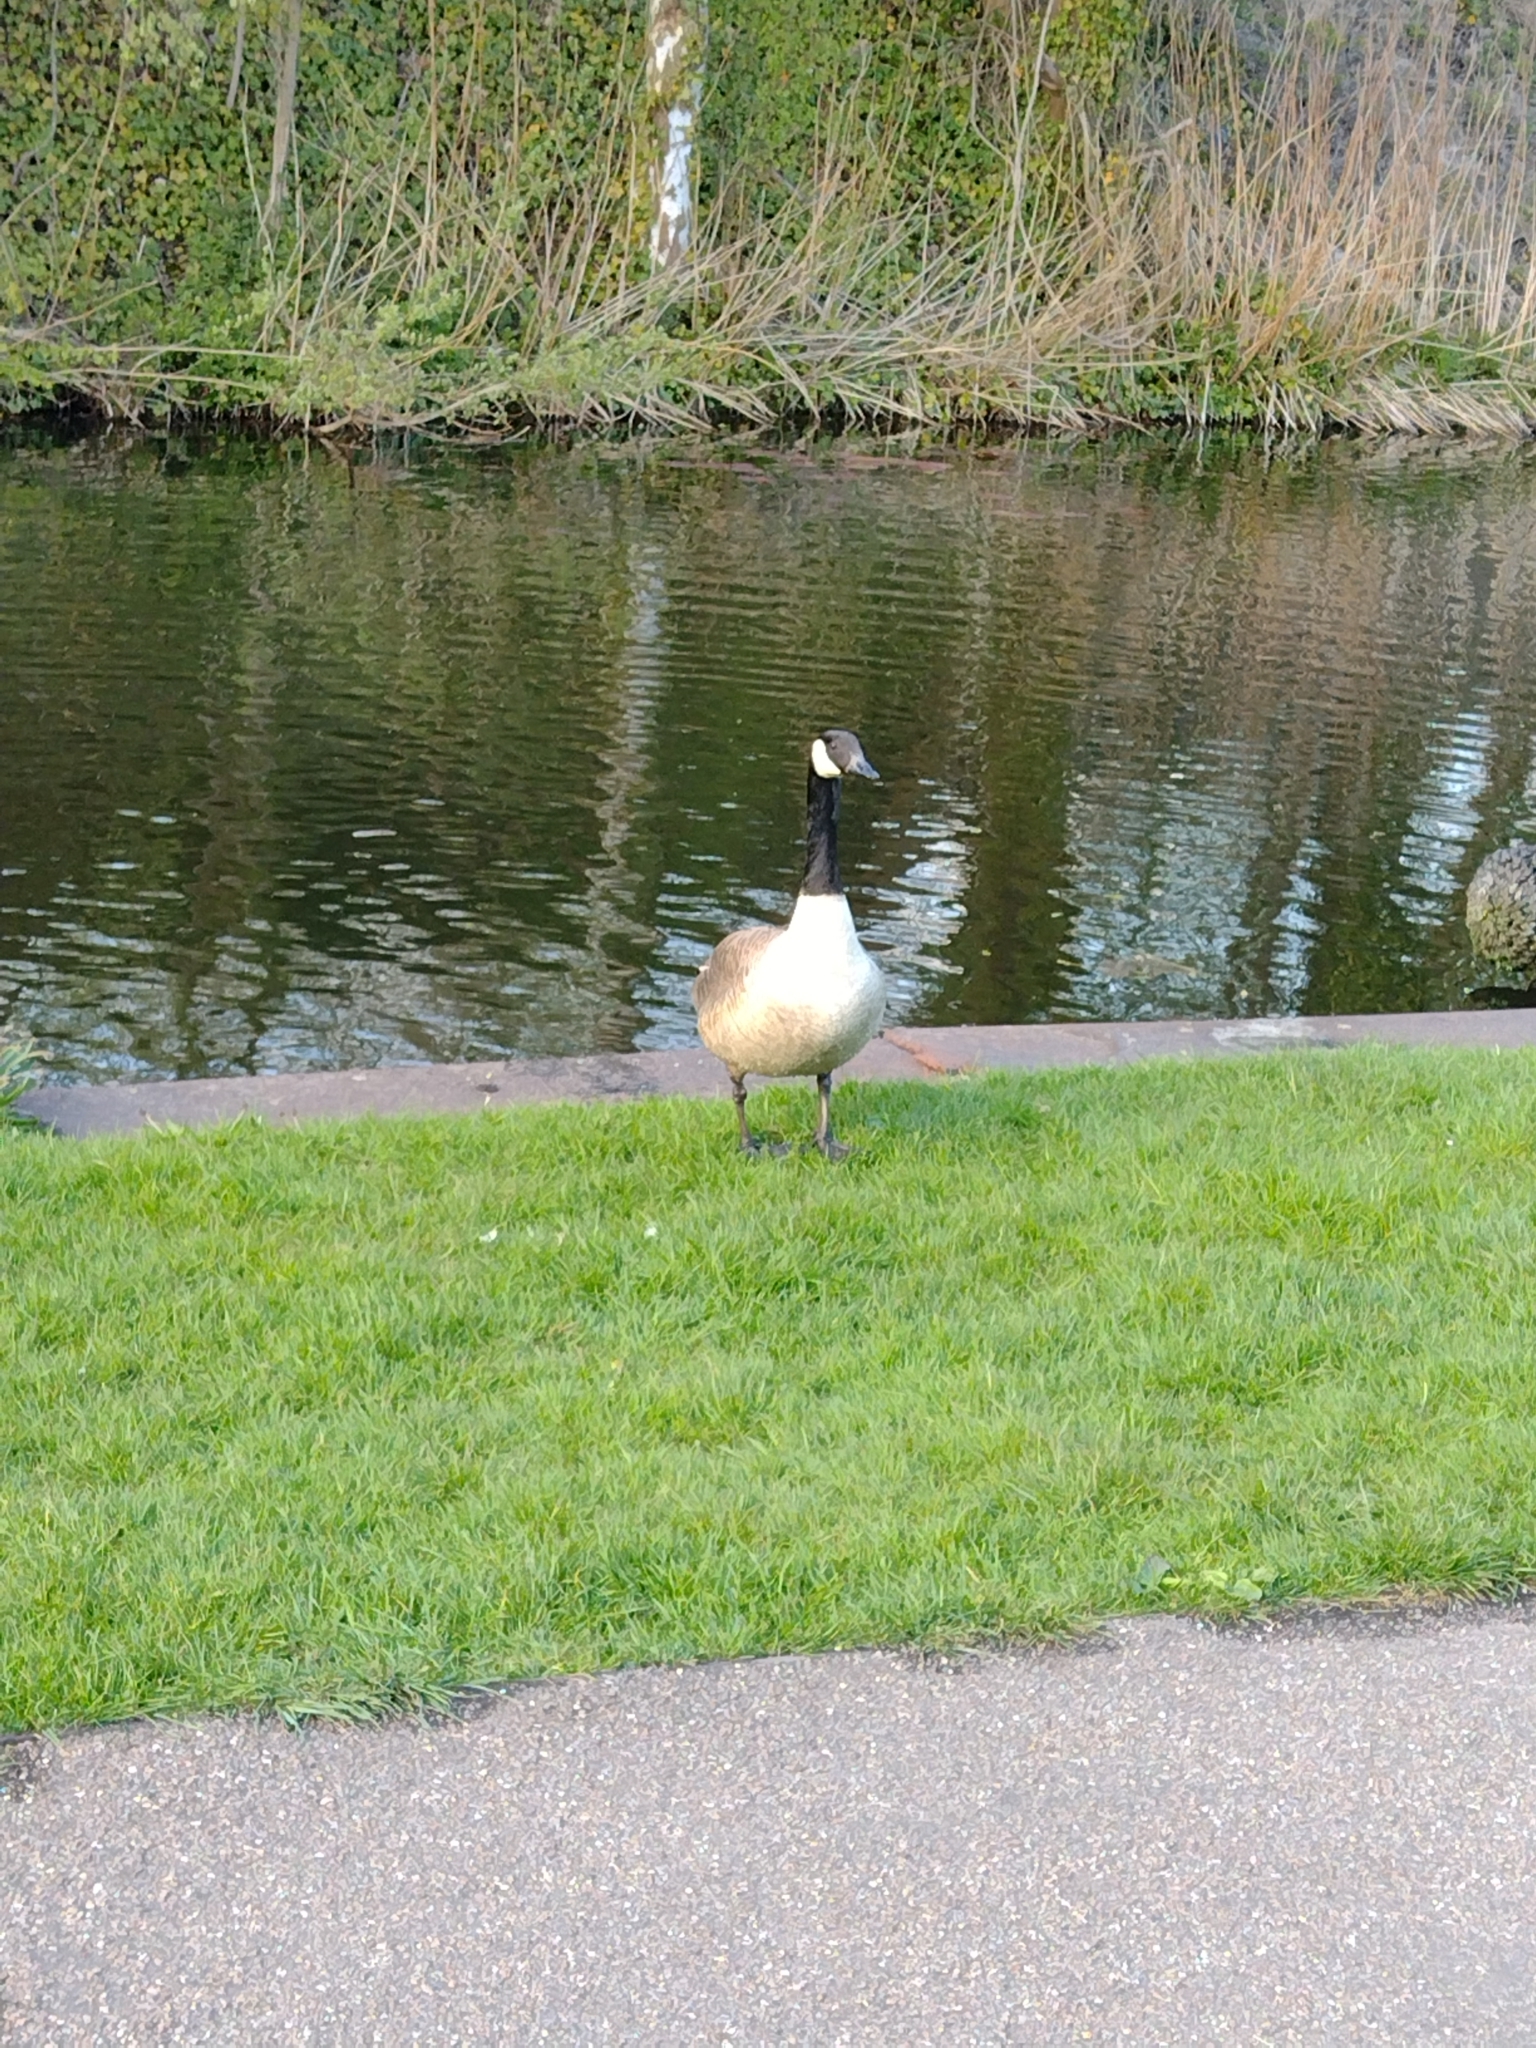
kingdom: Animalia
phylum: Chordata
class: Aves
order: Anseriformes
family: Anatidae
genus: Branta
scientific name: Branta canadensis
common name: Canada goose
